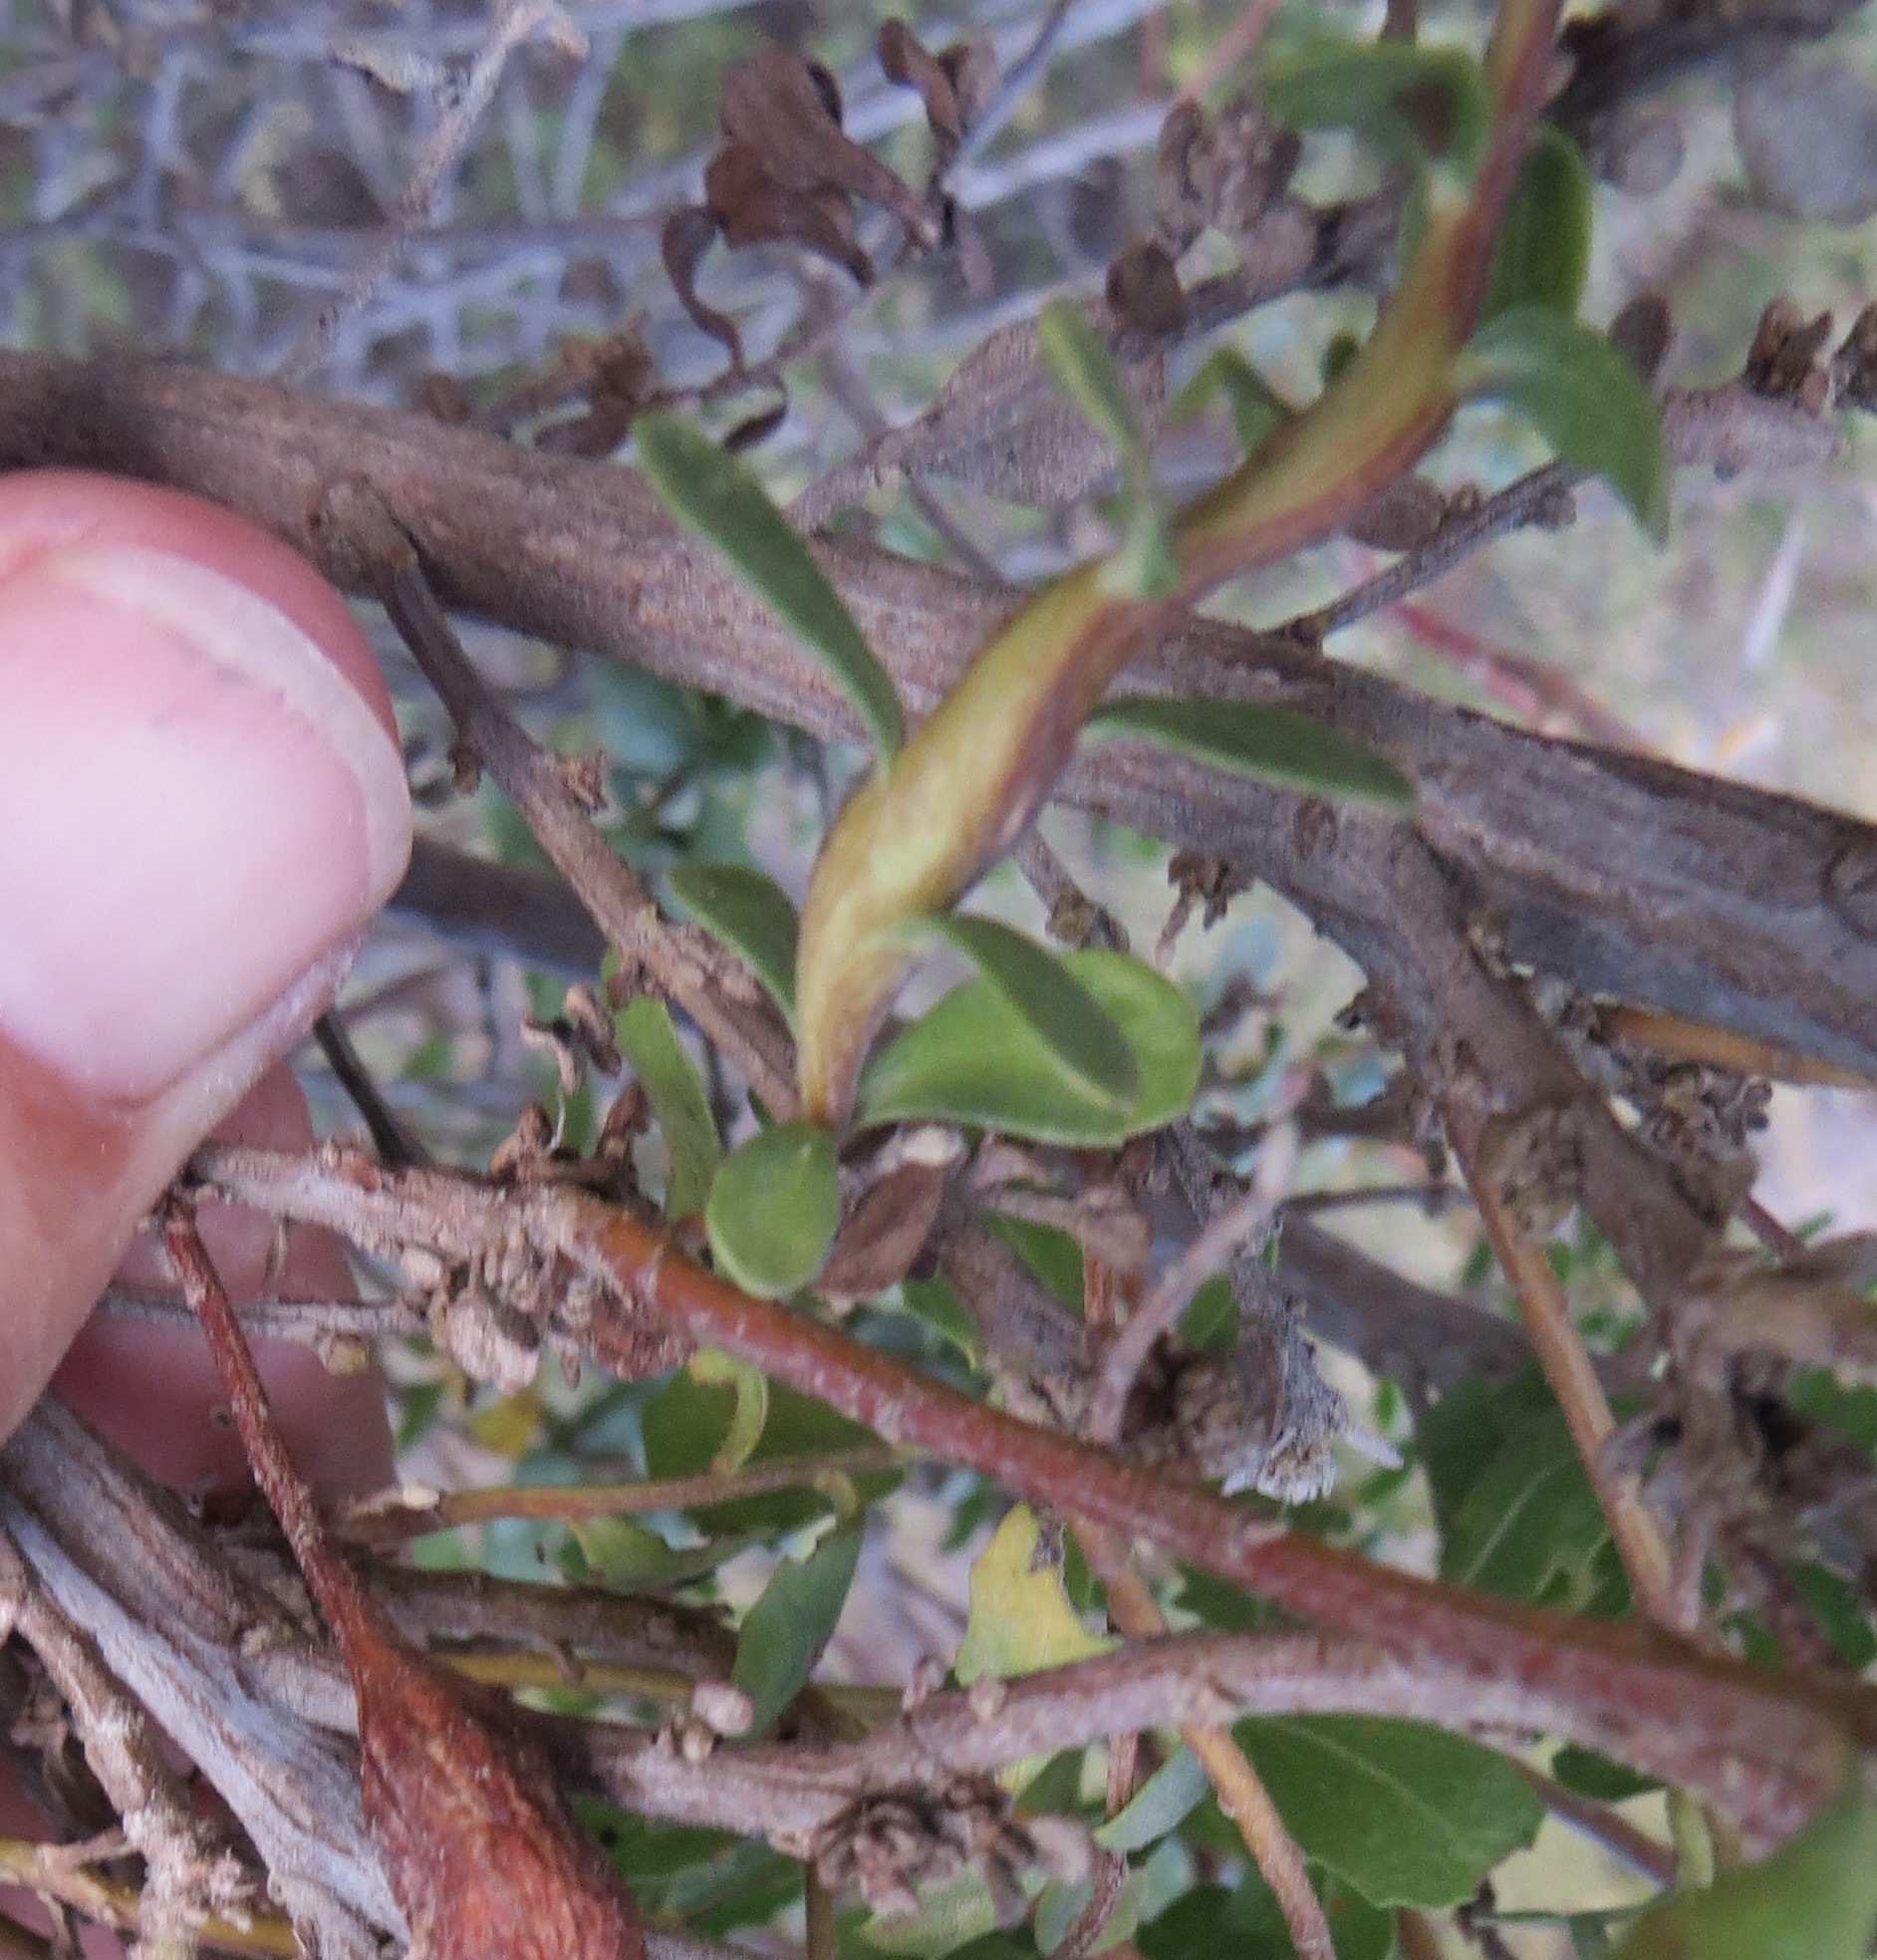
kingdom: Animalia
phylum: Arthropoda
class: Insecta
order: Diptera
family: Cecidomyiidae
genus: Rhopalomyia
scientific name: Rhopalomyia baccharis
